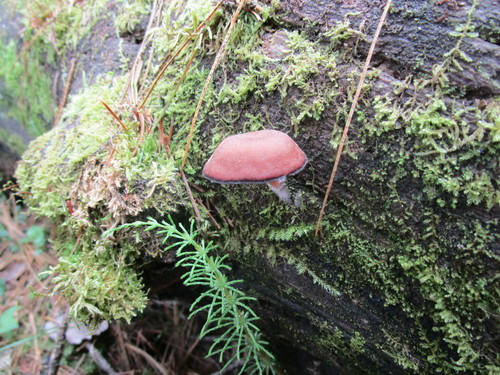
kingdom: Fungi
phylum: Basidiomycota
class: Agaricomycetes
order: Agaricales
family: Hygrophoraceae
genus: Arrhenia
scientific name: Arrhenia discorosea
